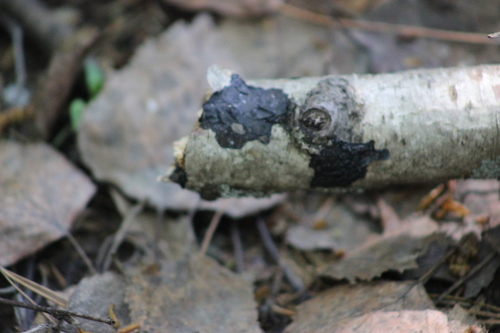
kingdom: Fungi
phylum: Basidiomycota
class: Agaricomycetes
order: Auriculariales
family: Auriculariaceae
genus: Exidia
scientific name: Exidia
